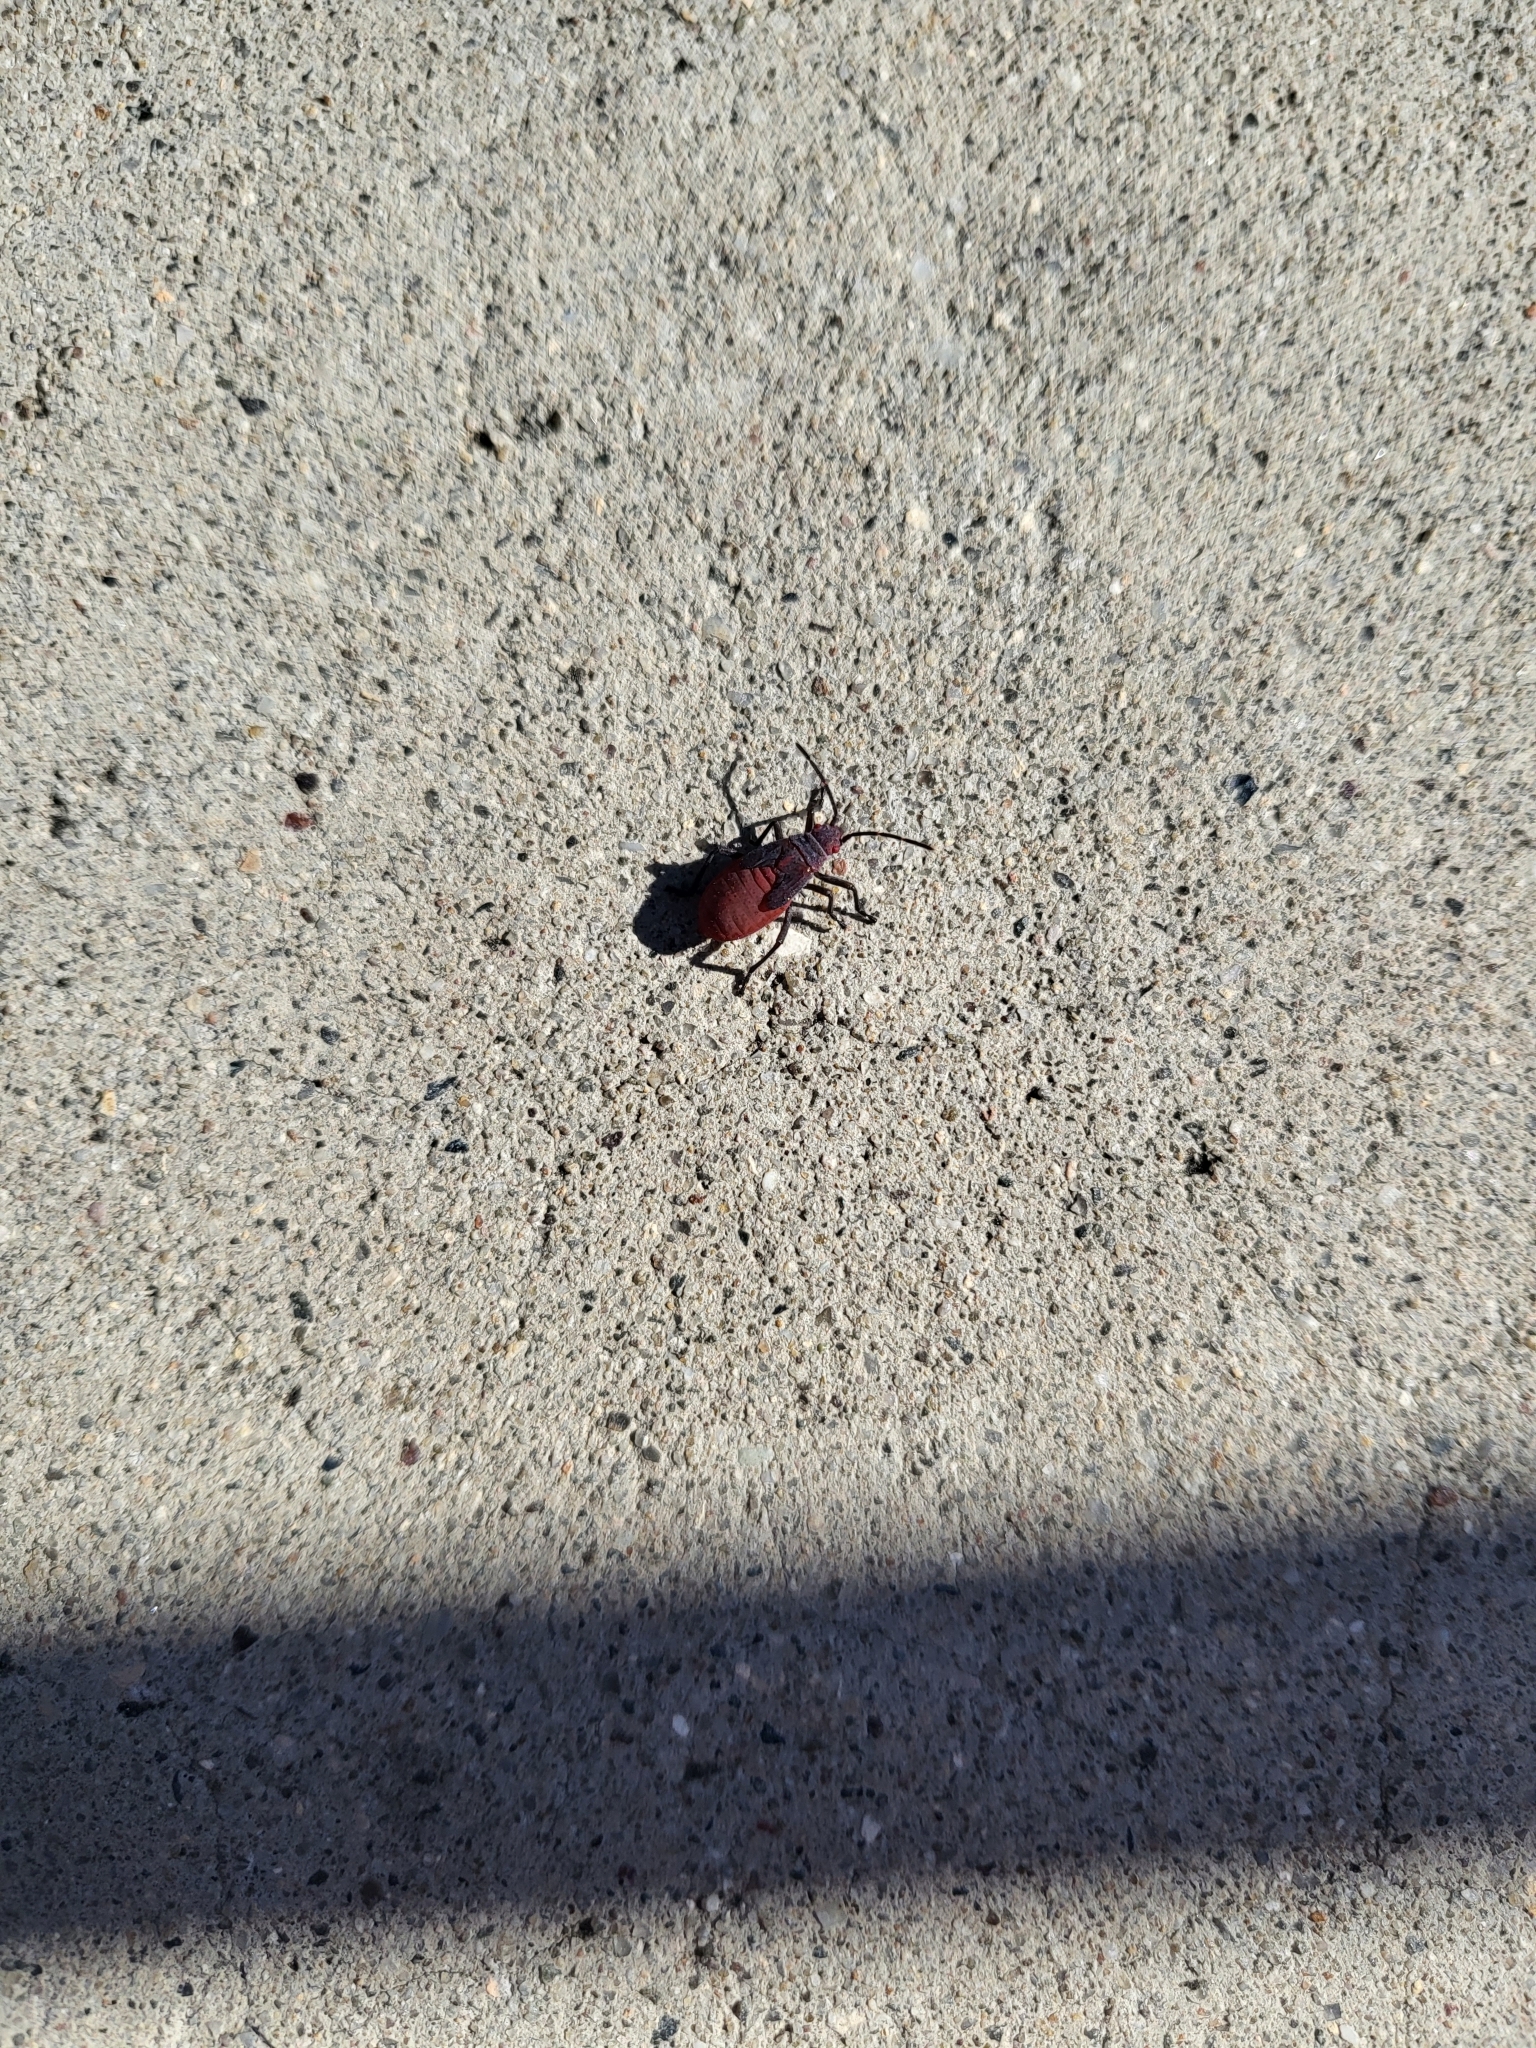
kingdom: Animalia
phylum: Arthropoda
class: Insecta
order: Hemiptera
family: Rhopalidae
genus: Jadera
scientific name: Jadera haematoloma
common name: Red-shouldered bug
